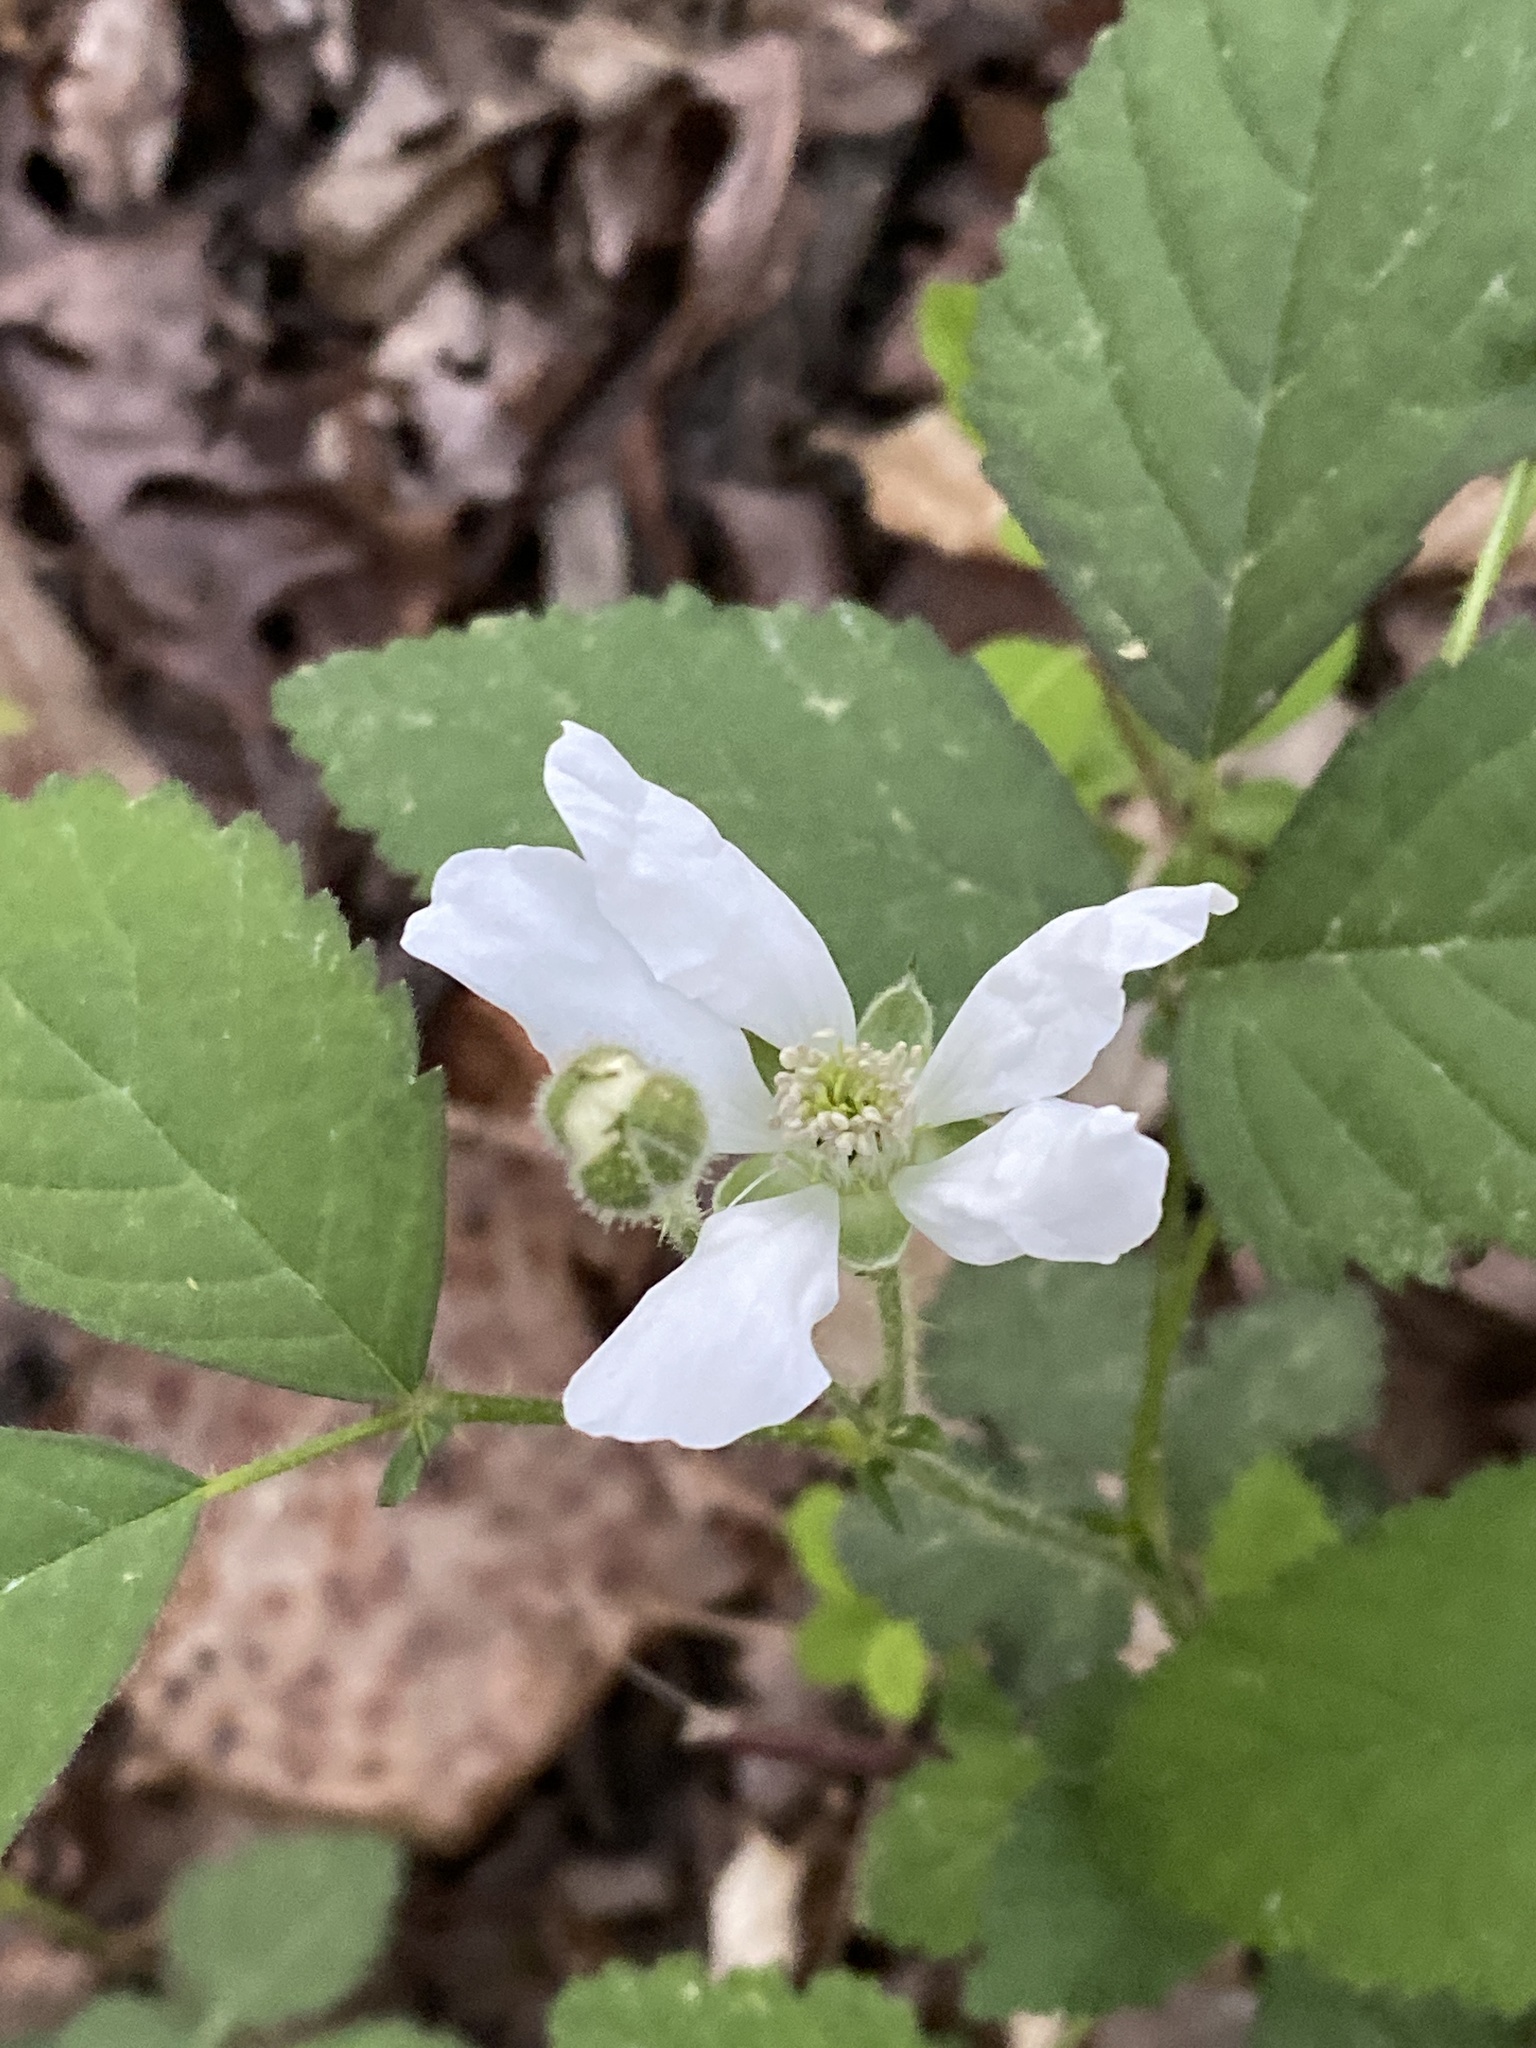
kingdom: Plantae
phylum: Tracheophyta
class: Magnoliopsida
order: Rosales
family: Rosaceae
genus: Rubus
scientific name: Rubus trivialis
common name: Southern dewberry
